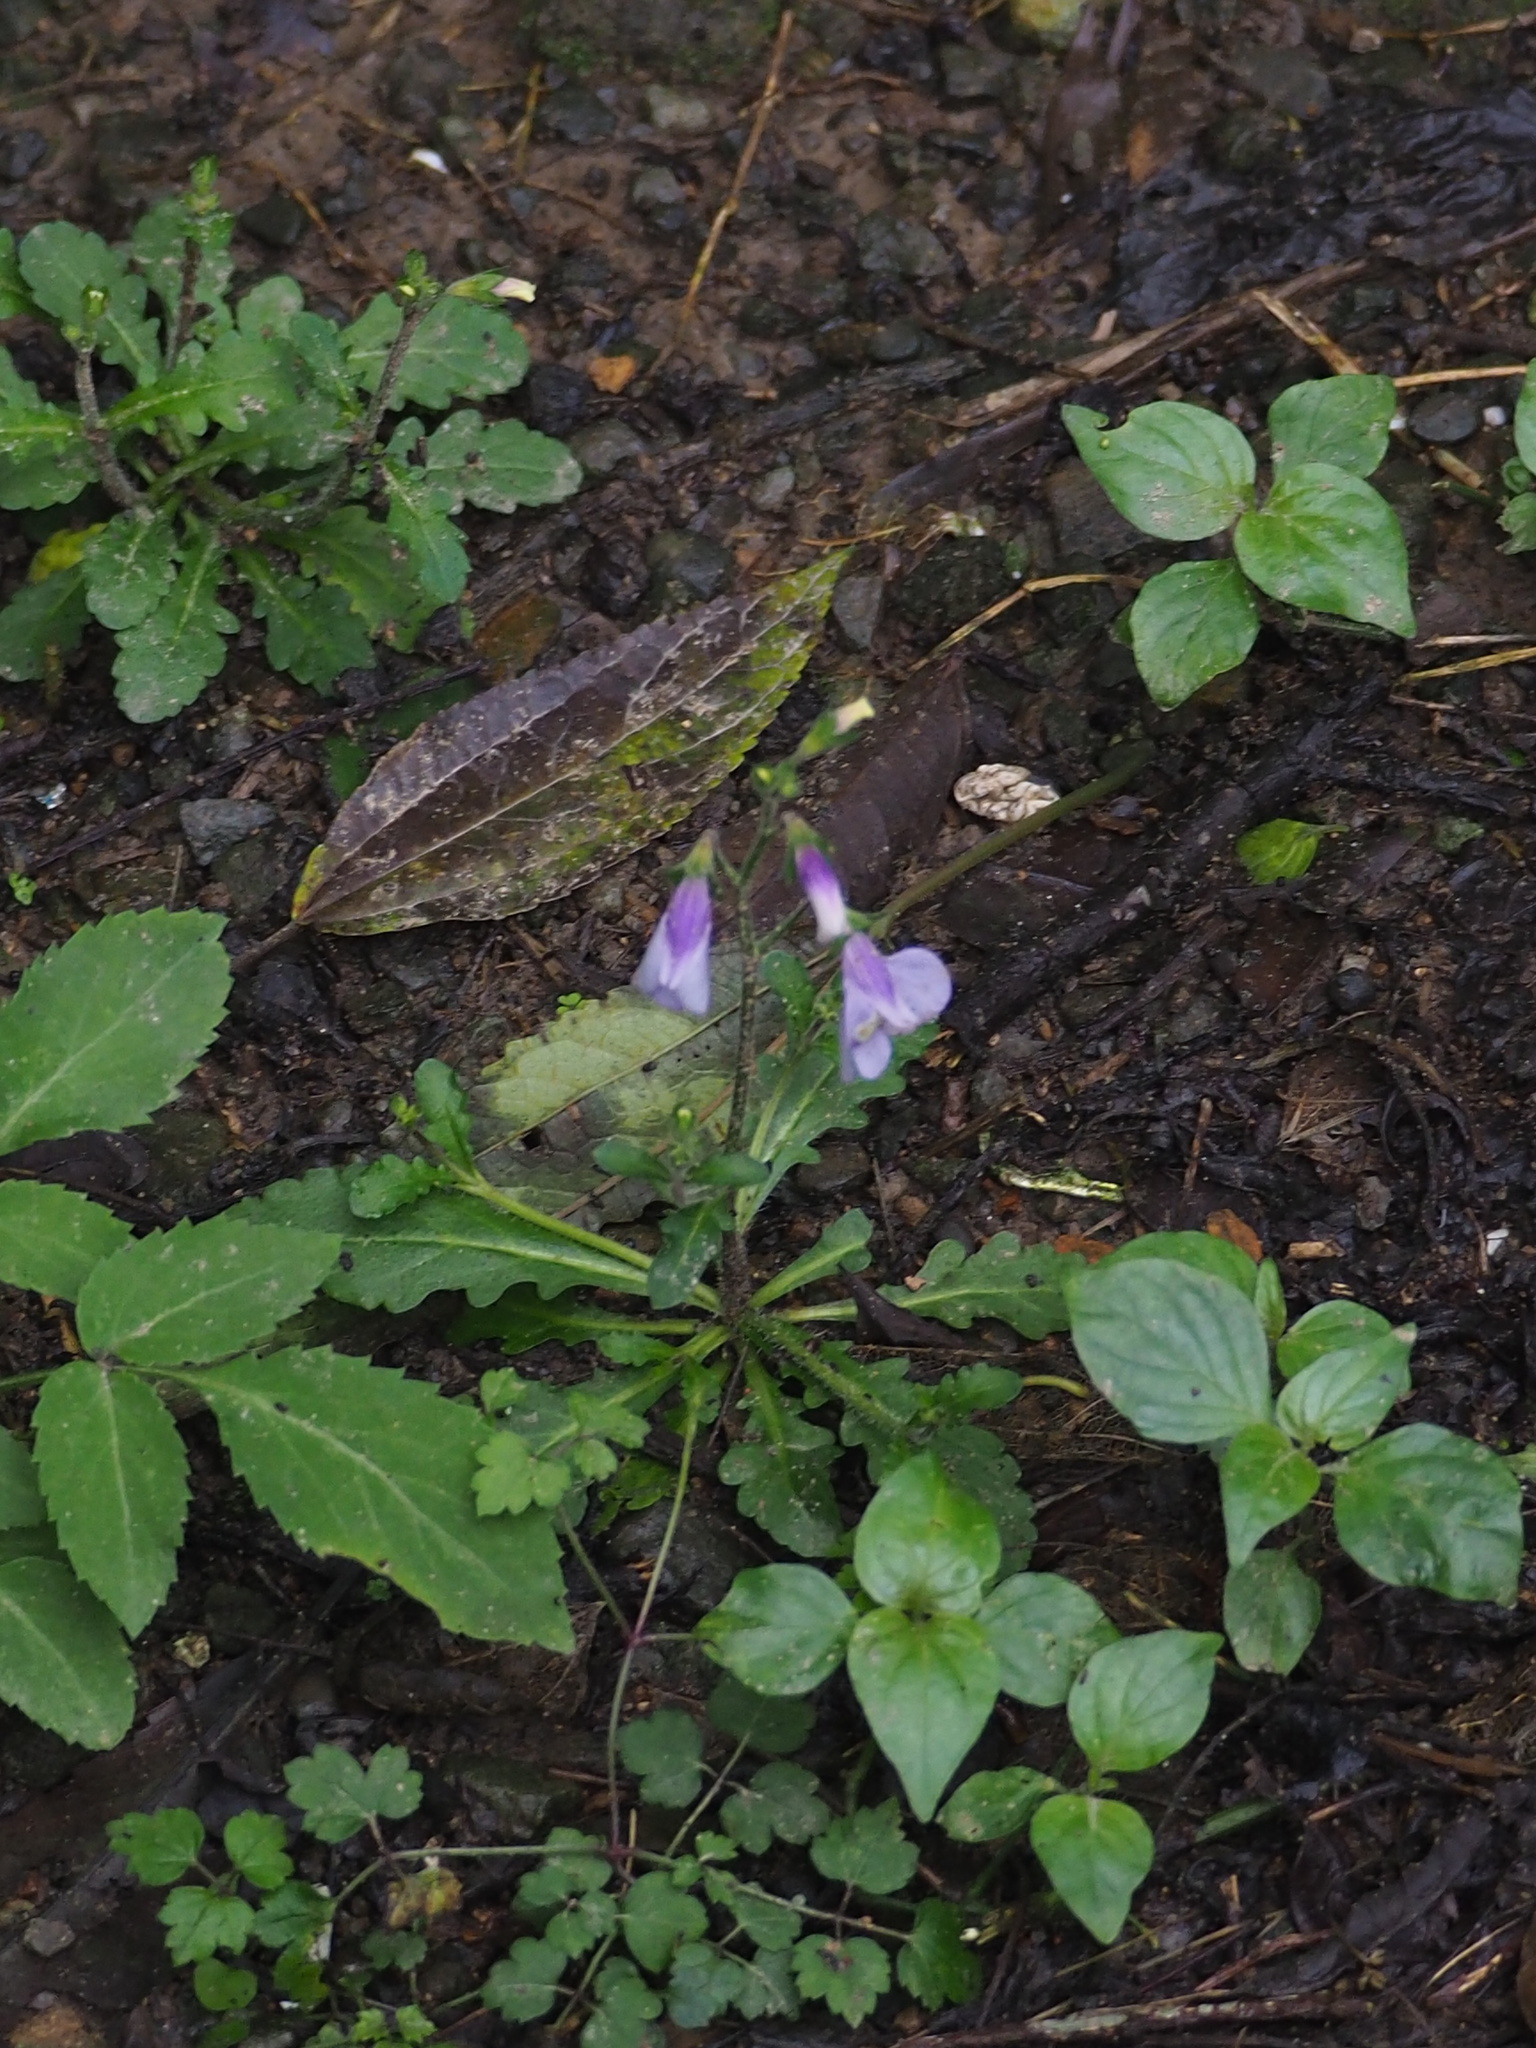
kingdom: Plantae
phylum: Tracheophyta
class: Magnoliopsida
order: Lamiales
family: Mazaceae
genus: Mazus
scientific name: Mazus fauriei
